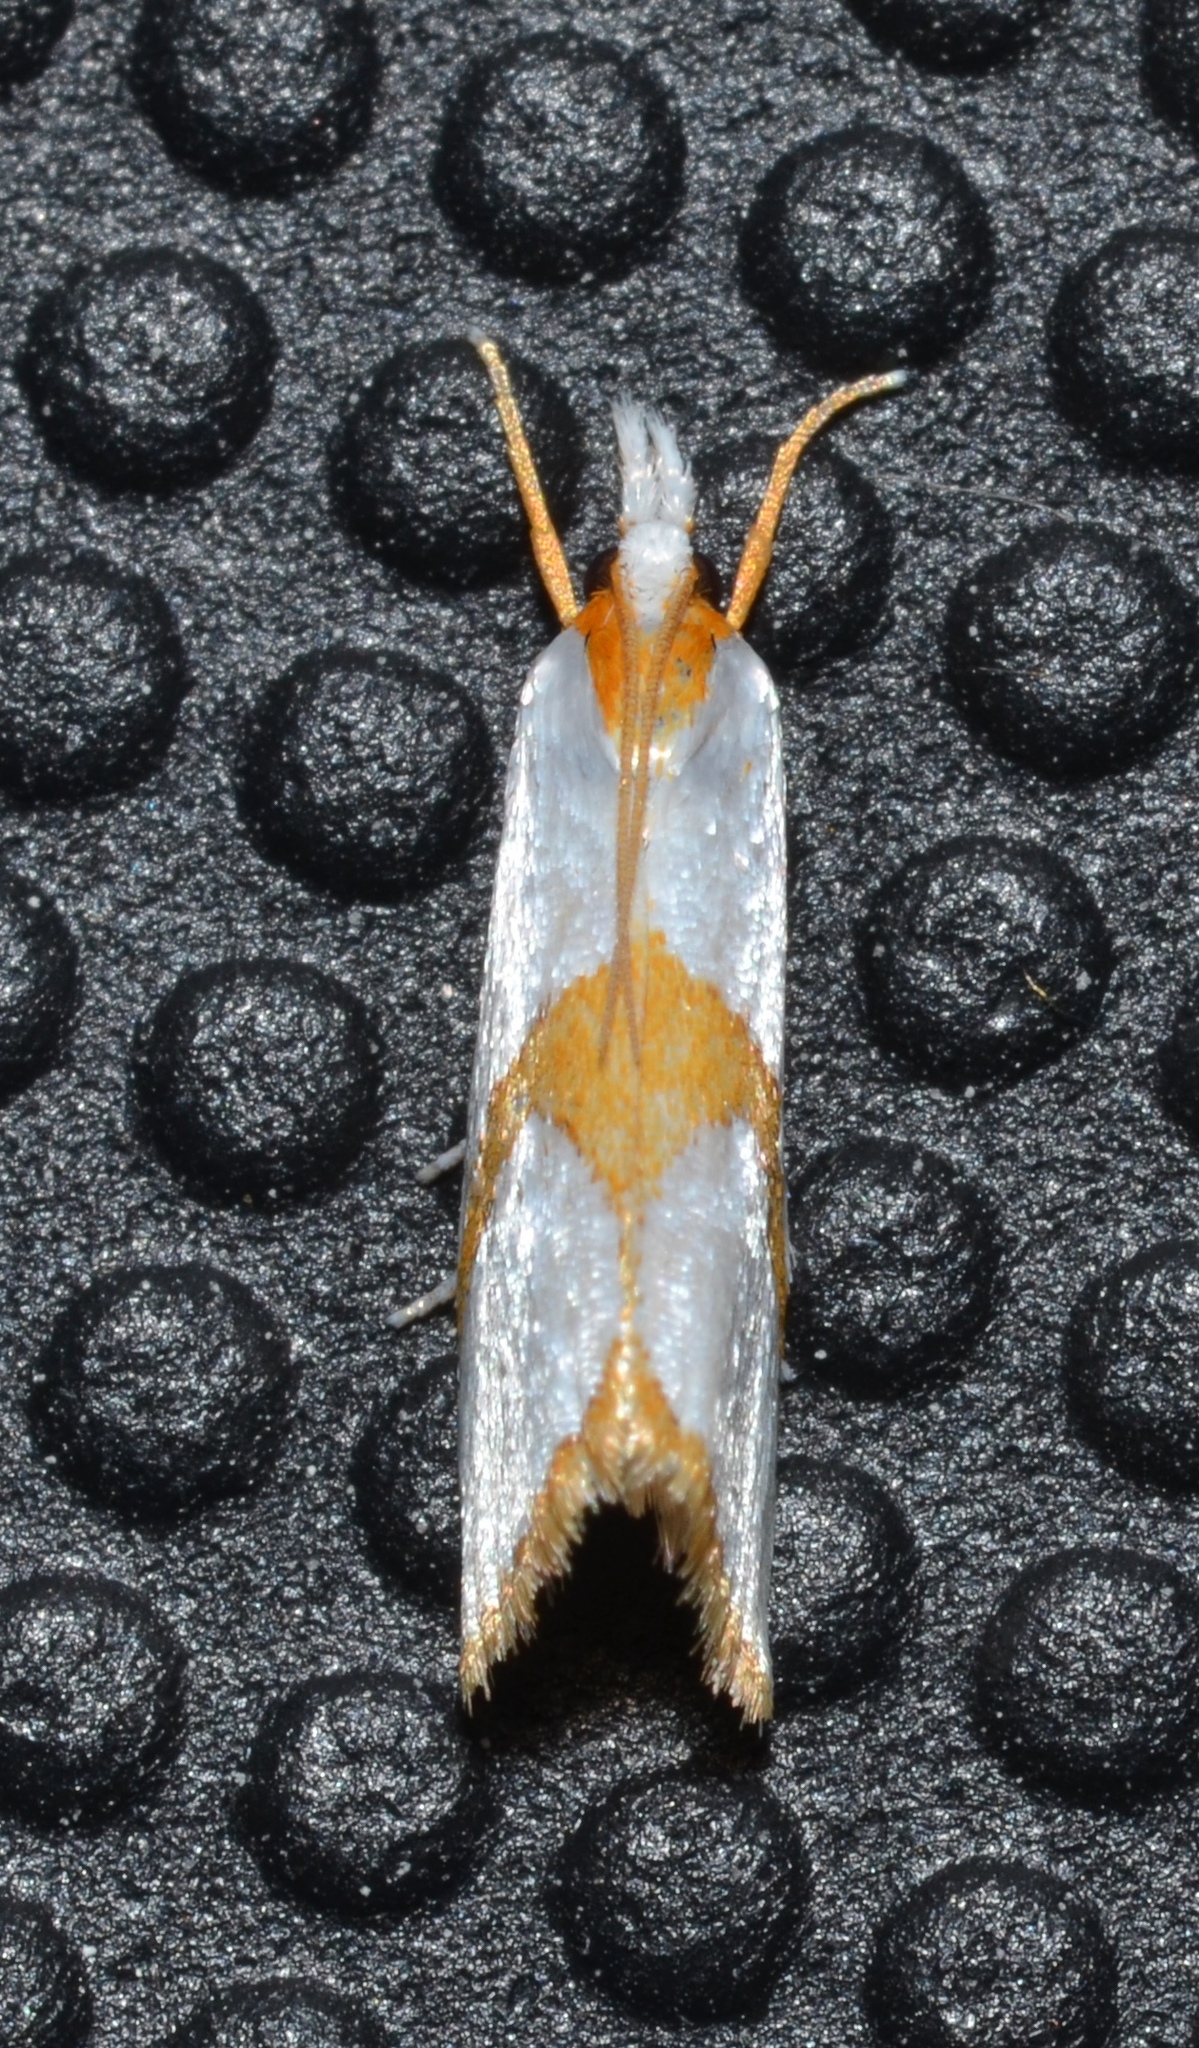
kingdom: Animalia
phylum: Arthropoda
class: Insecta
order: Lepidoptera
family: Crambidae
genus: Argyria
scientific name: Argyria auratella
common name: Curve-lined argyria moth
